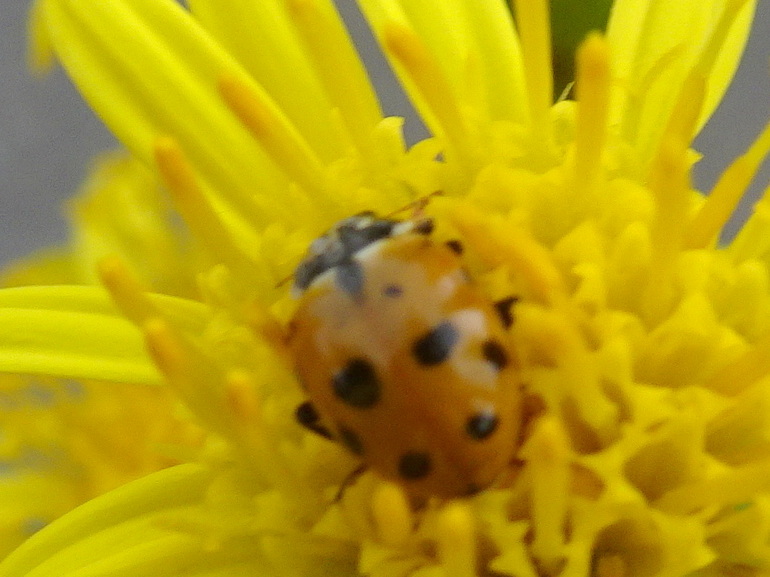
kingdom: Animalia
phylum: Arthropoda
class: Insecta
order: Coleoptera
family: Coccinellidae
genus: Hippodamia
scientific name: Hippodamia variegata
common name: Ladybird beetle
